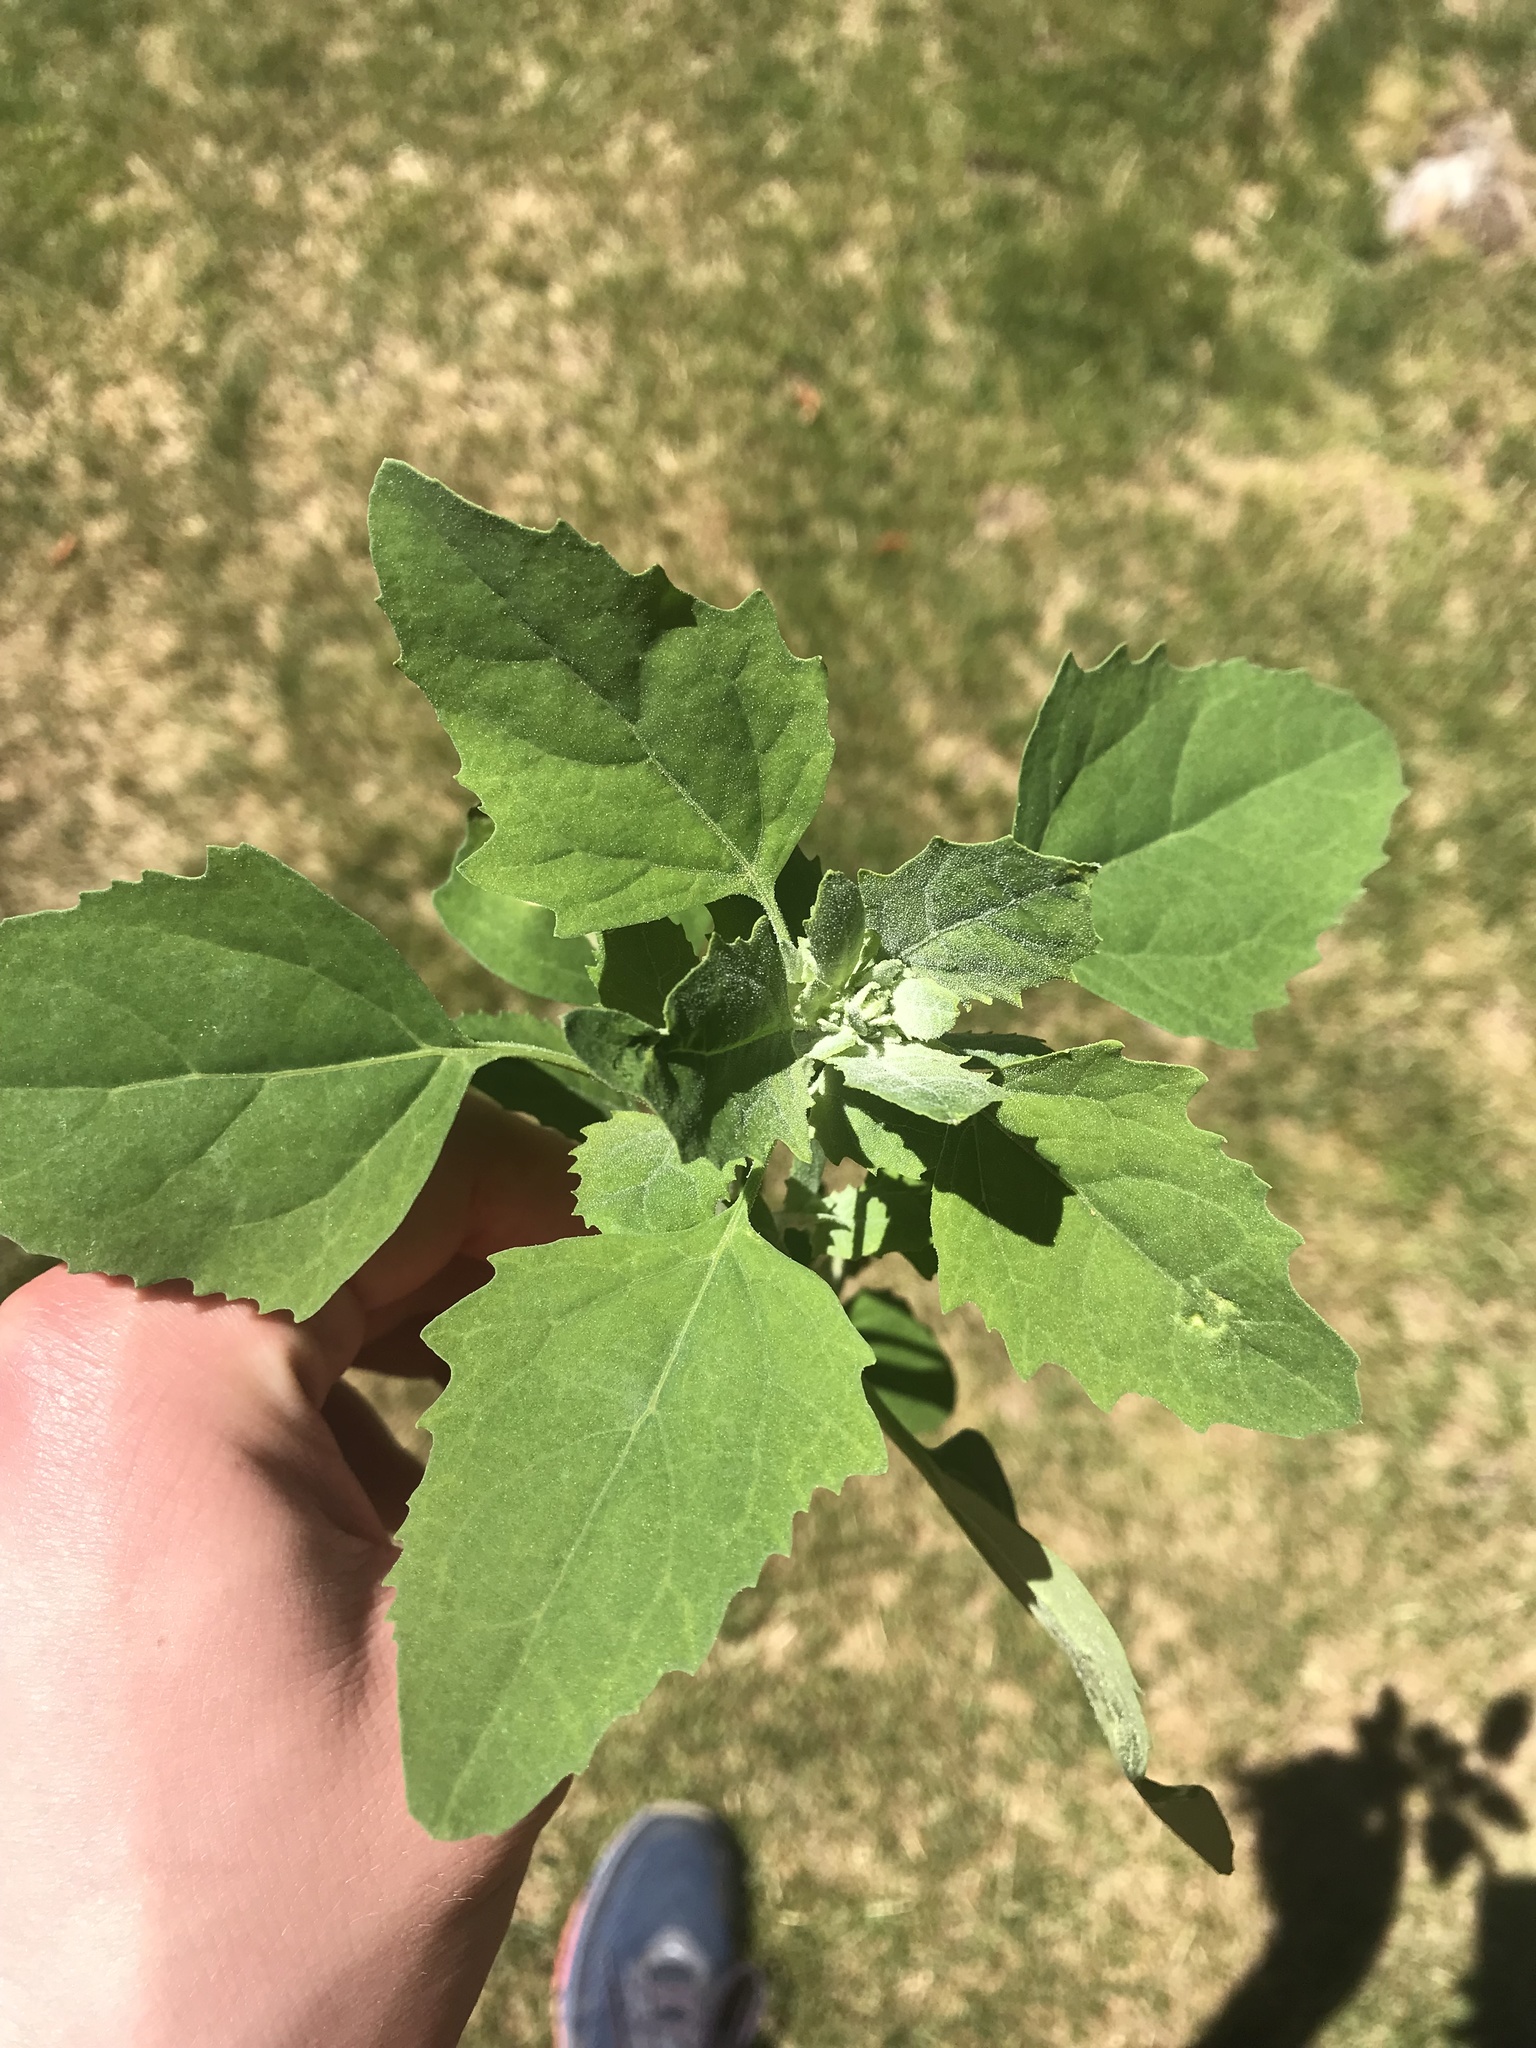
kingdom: Plantae
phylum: Tracheophyta
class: Magnoliopsida
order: Caryophyllales
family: Amaranthaceae
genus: Chenopodium
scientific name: Chenopodium album
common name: Fat-hen
